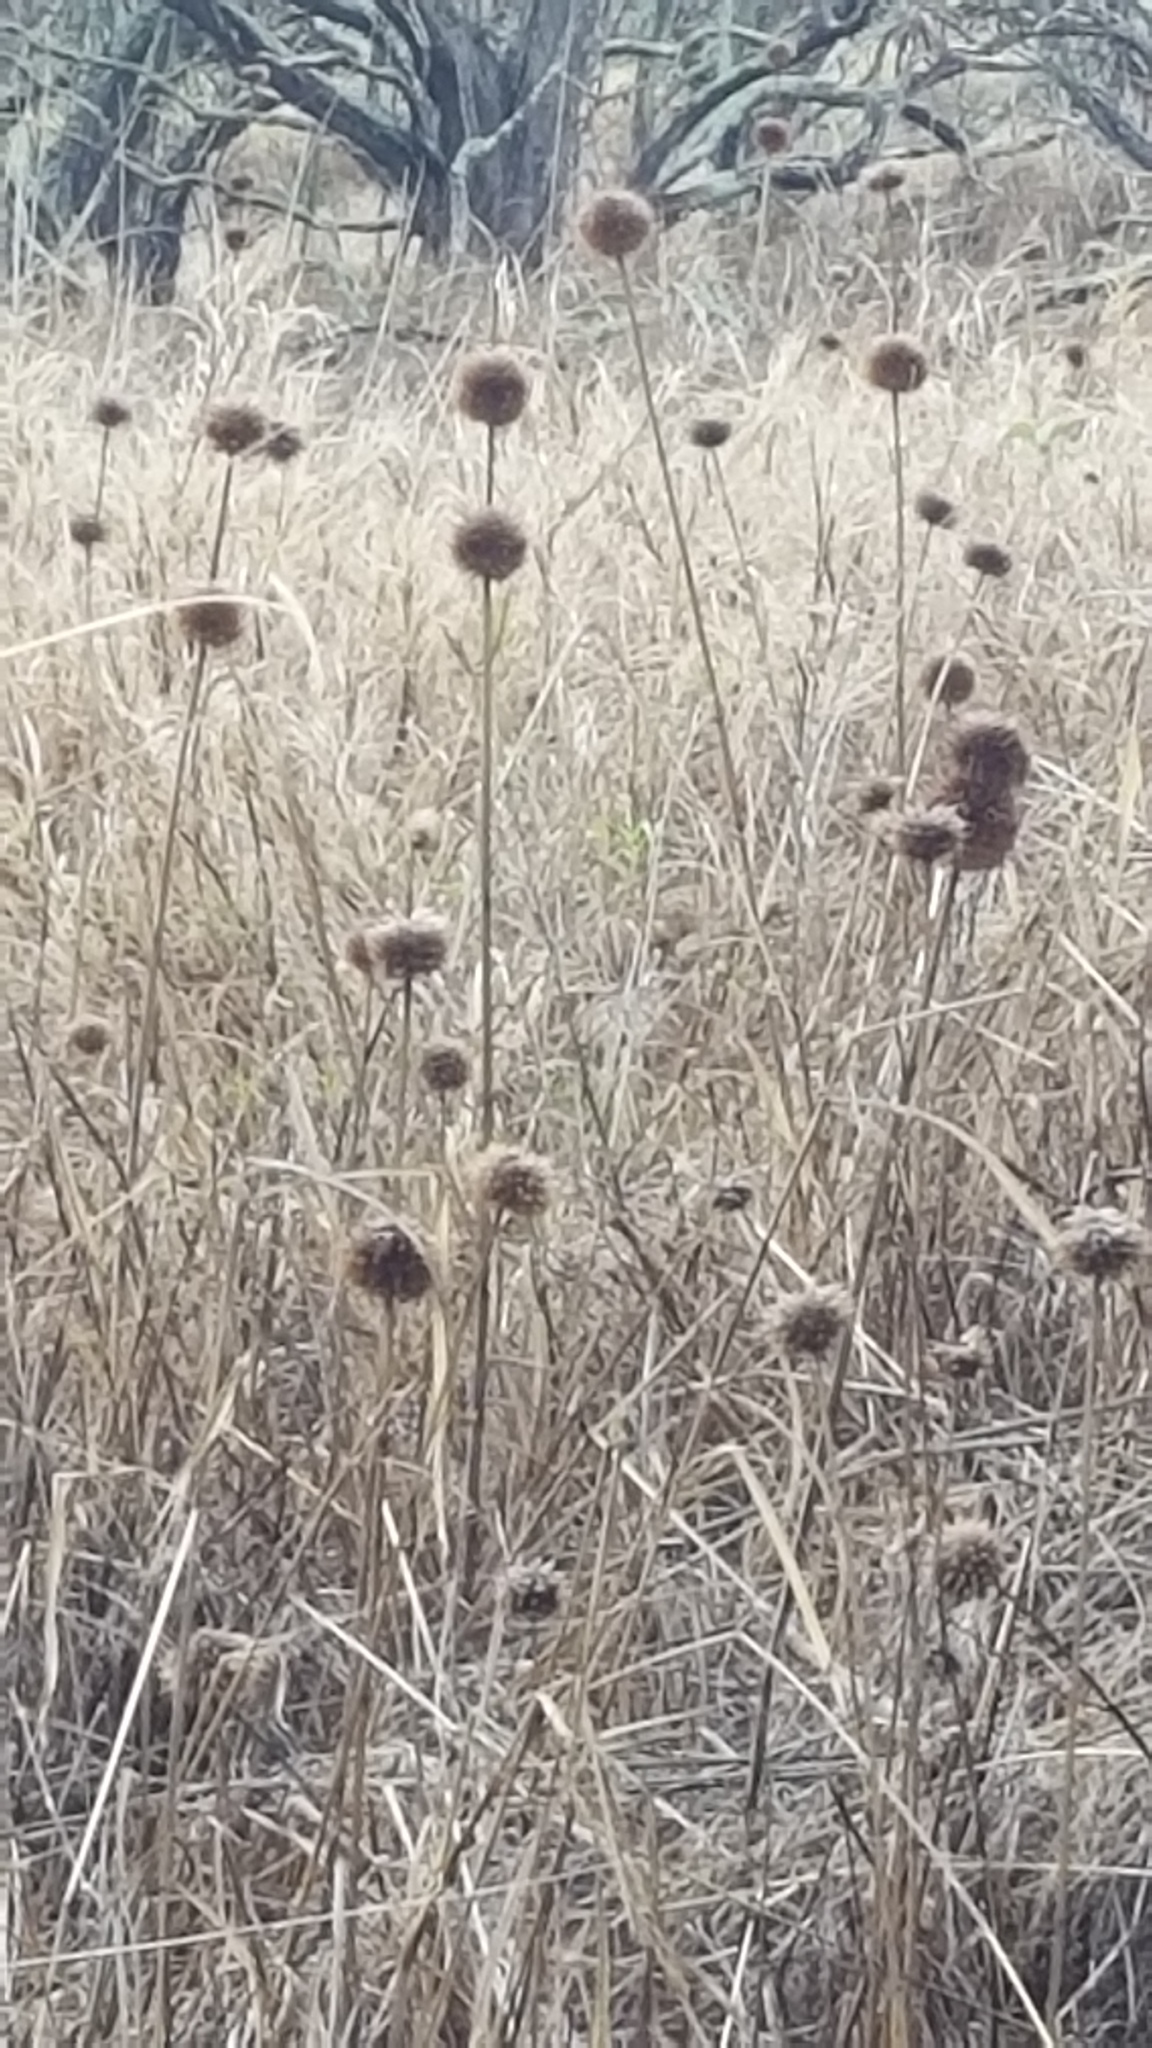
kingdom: Plantae
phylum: Tracheophyta
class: Magnoliopsida
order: Lamiales
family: Lamiaceae
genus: Leonotis
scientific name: Leonotis nepetifolia
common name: Christmas candlestick
